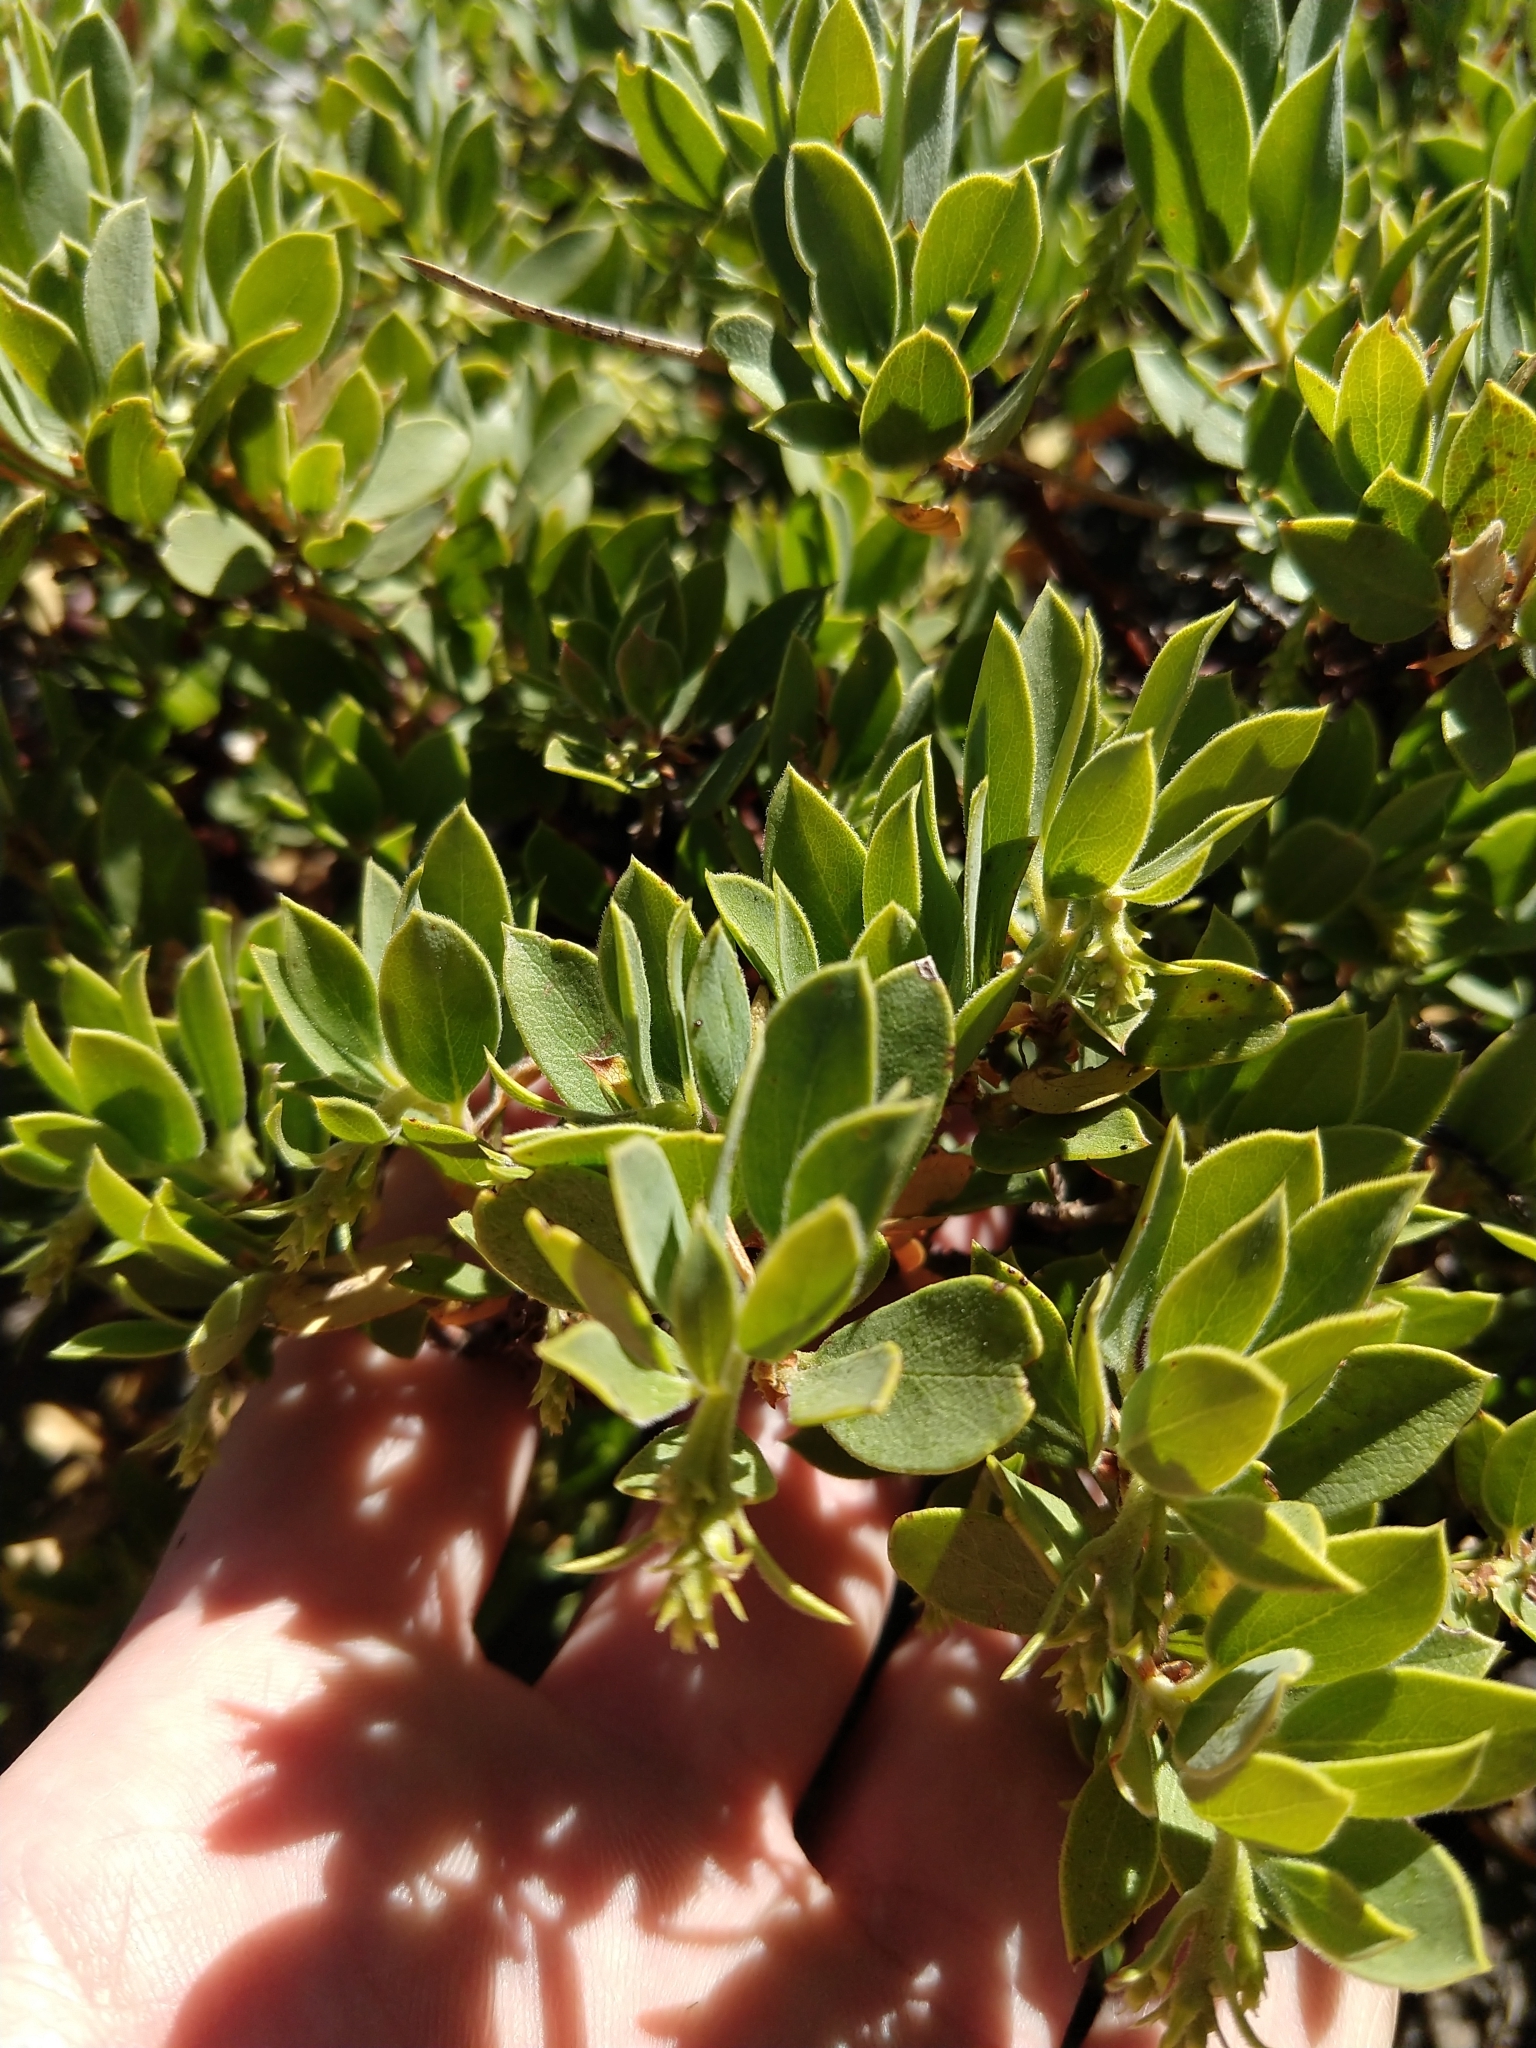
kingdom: Plantae
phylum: Tracheophyta
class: Magnoliopsida
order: Ericales
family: Ericaceae
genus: Arctostaphylos
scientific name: Arctostaphylos nevadensis
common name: Pinemat manzanita
